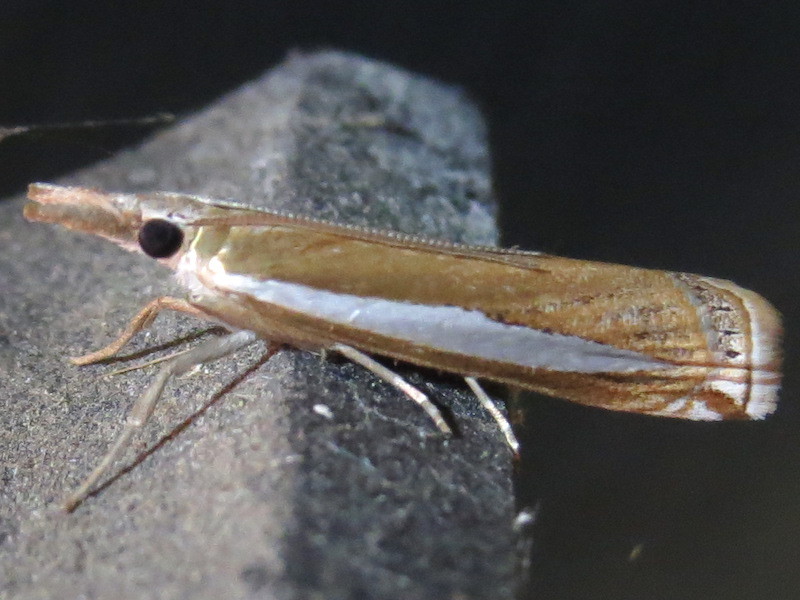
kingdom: Animalia
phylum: Arthropoda
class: Insecta
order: Lepidoptera
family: Crambidae
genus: Crambus
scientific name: Crambus praefectellus
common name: Common grass-veneer
